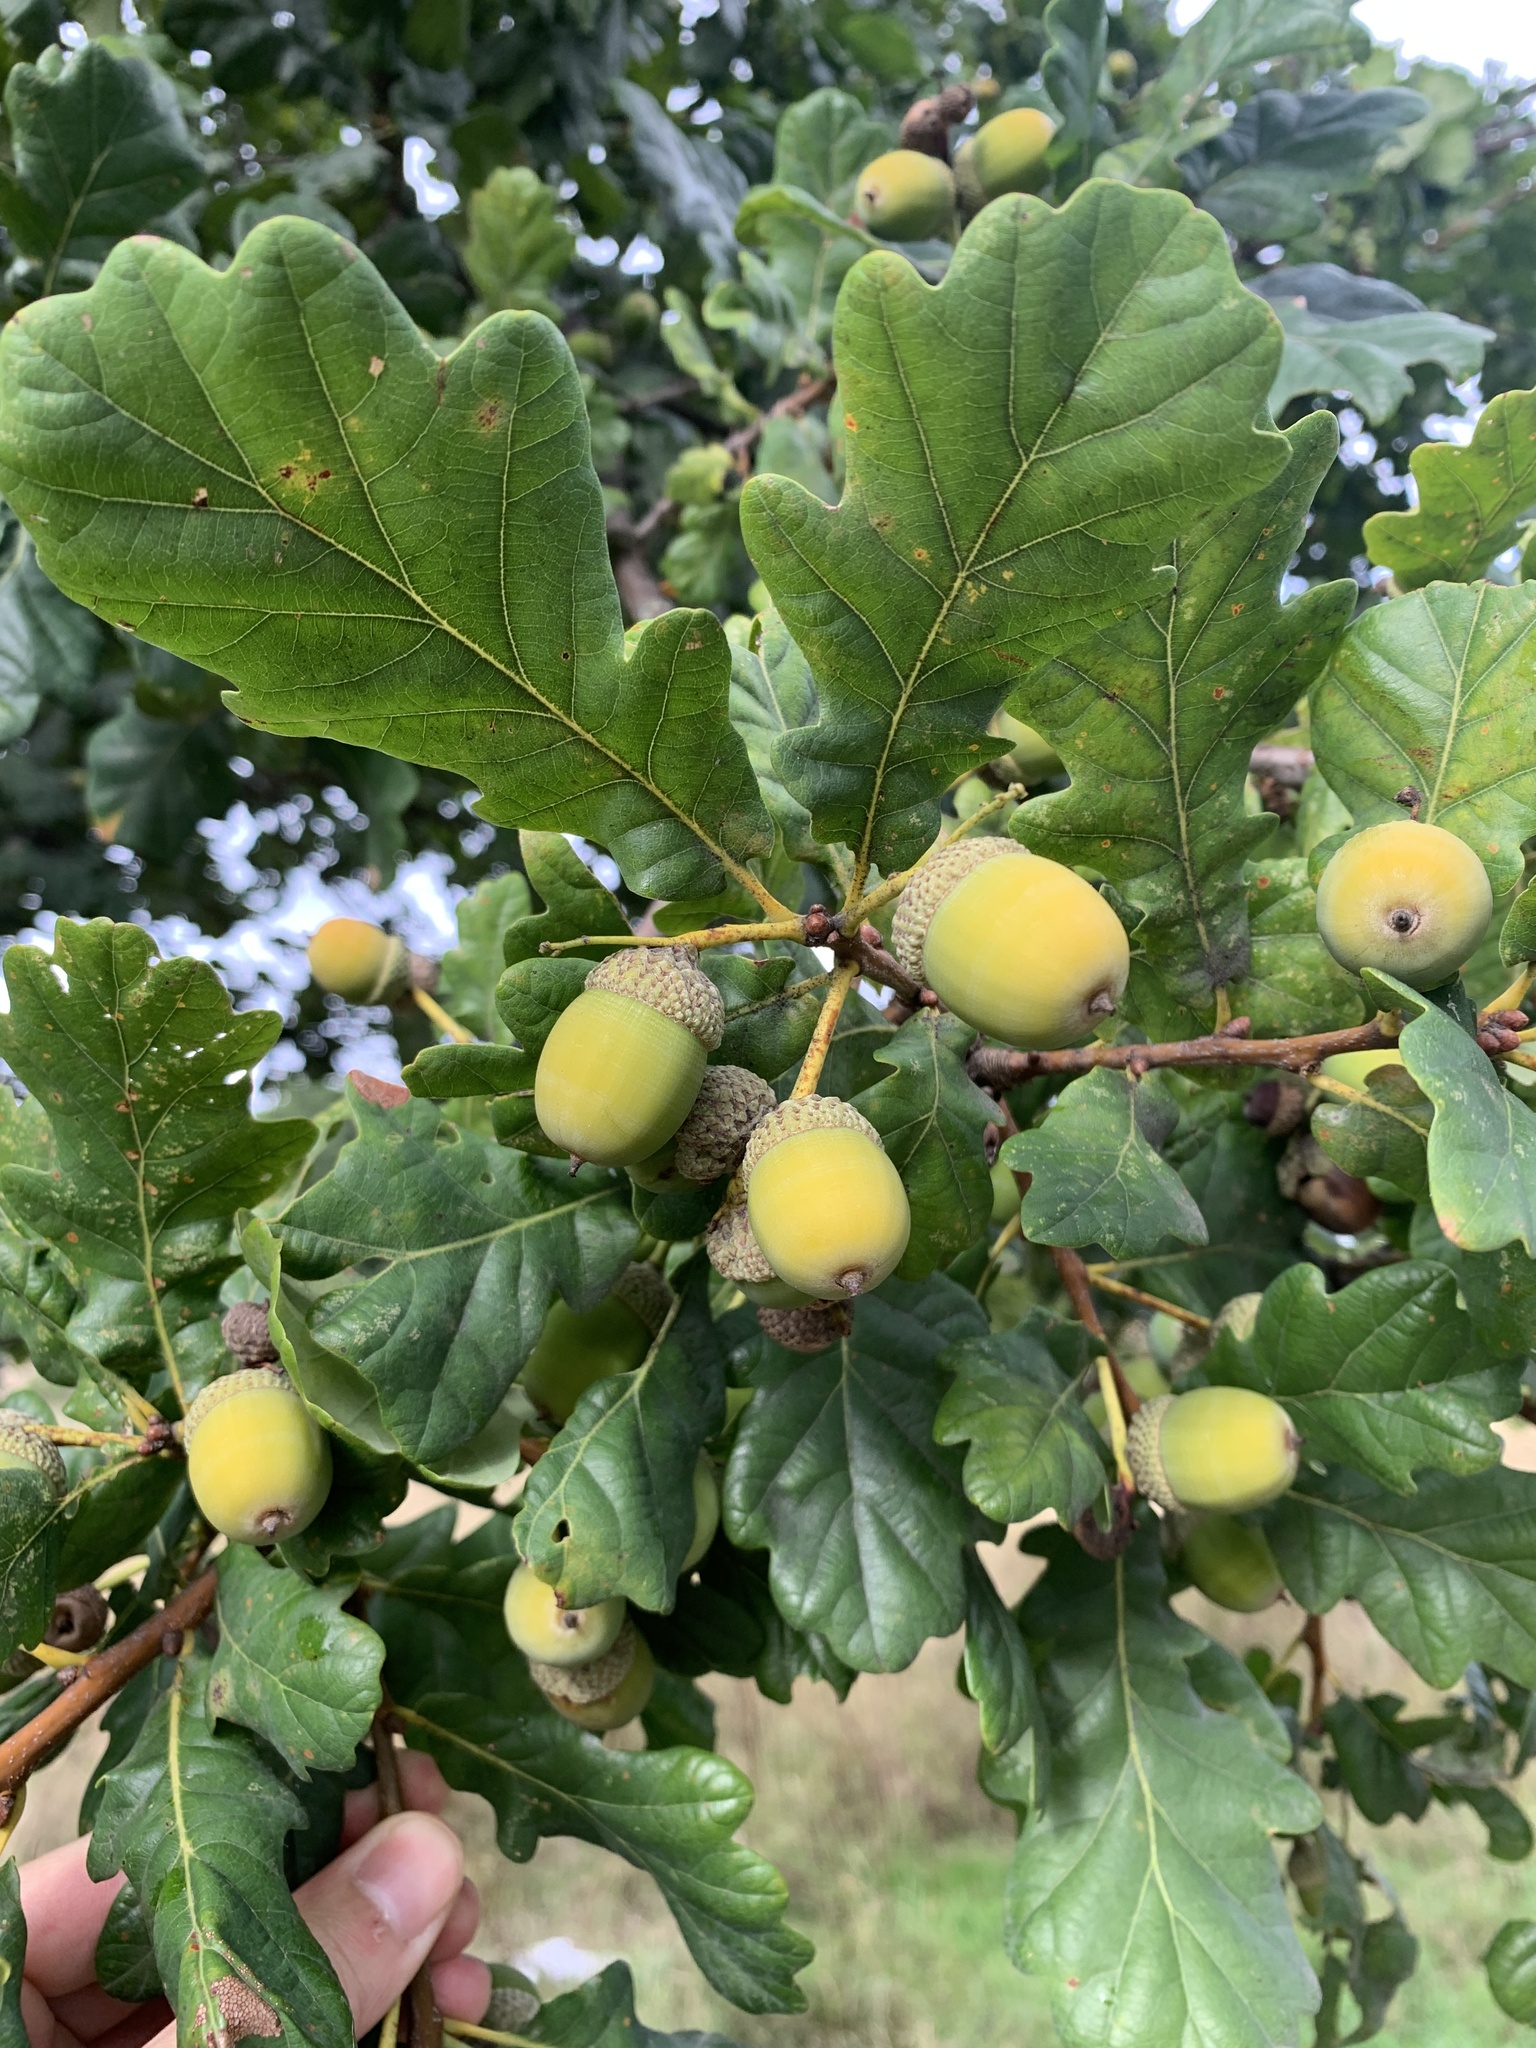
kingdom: Plantae
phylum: Tracheophyta
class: Magnoliopsida
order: Fagales
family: Fagaceae
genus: Quercus
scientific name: Quercus robur
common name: Pedunculate oak
